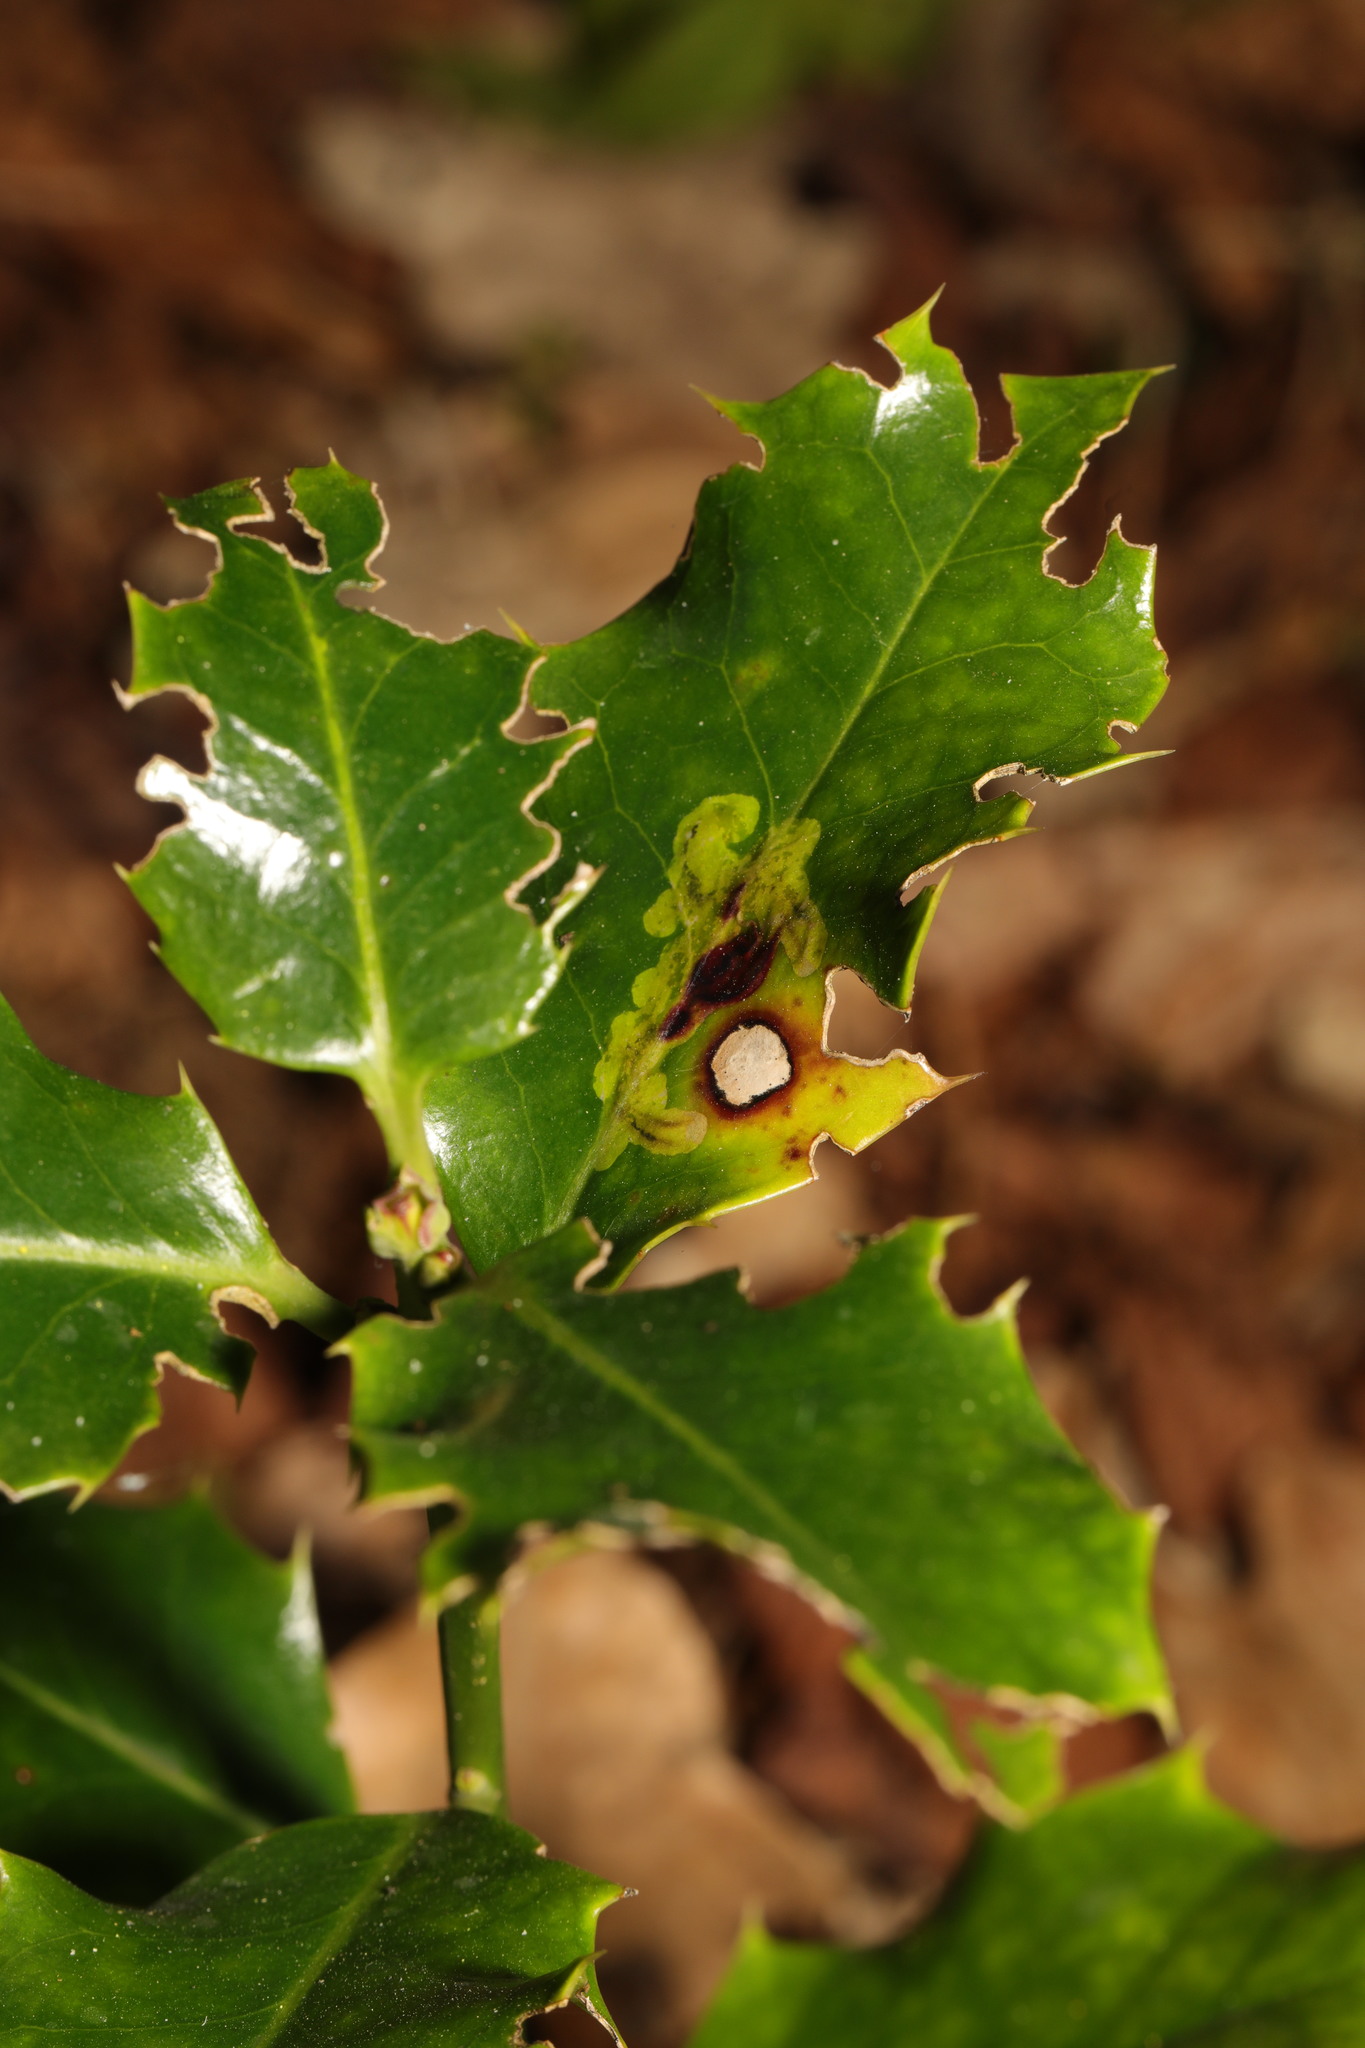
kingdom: Animalia
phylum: Arthropoda
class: Insecta
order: Diptera
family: Agromyzidae
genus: Phytomyza
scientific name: Phytomyza ilicis
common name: Holly leafminer
